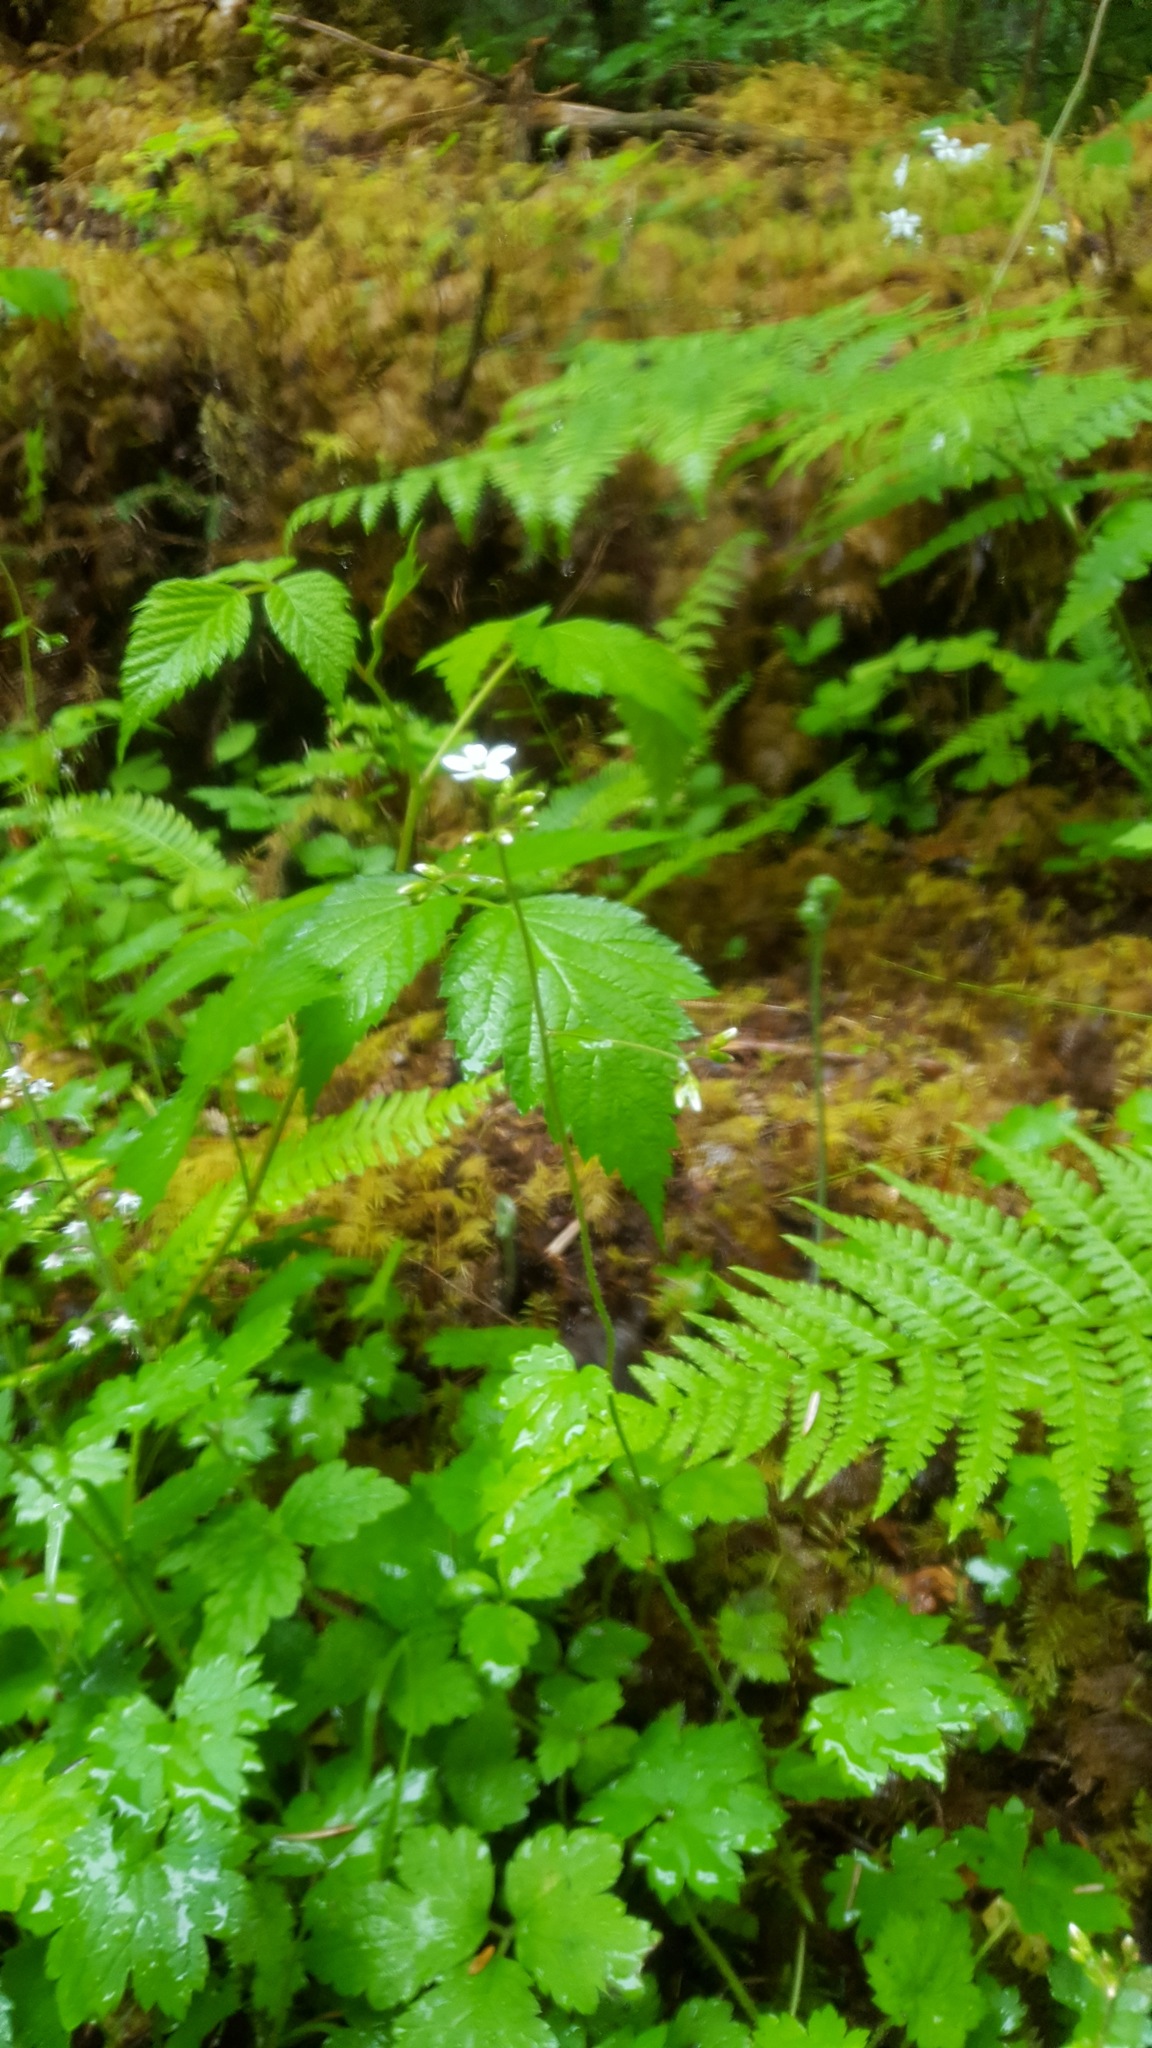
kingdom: Plantae
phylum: Tracheophyta
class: Magnoliopsida
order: Saxifragales
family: Saxifragaceae
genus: Boykinia
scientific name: Boykinia occidentalis
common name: Coast boykinia
